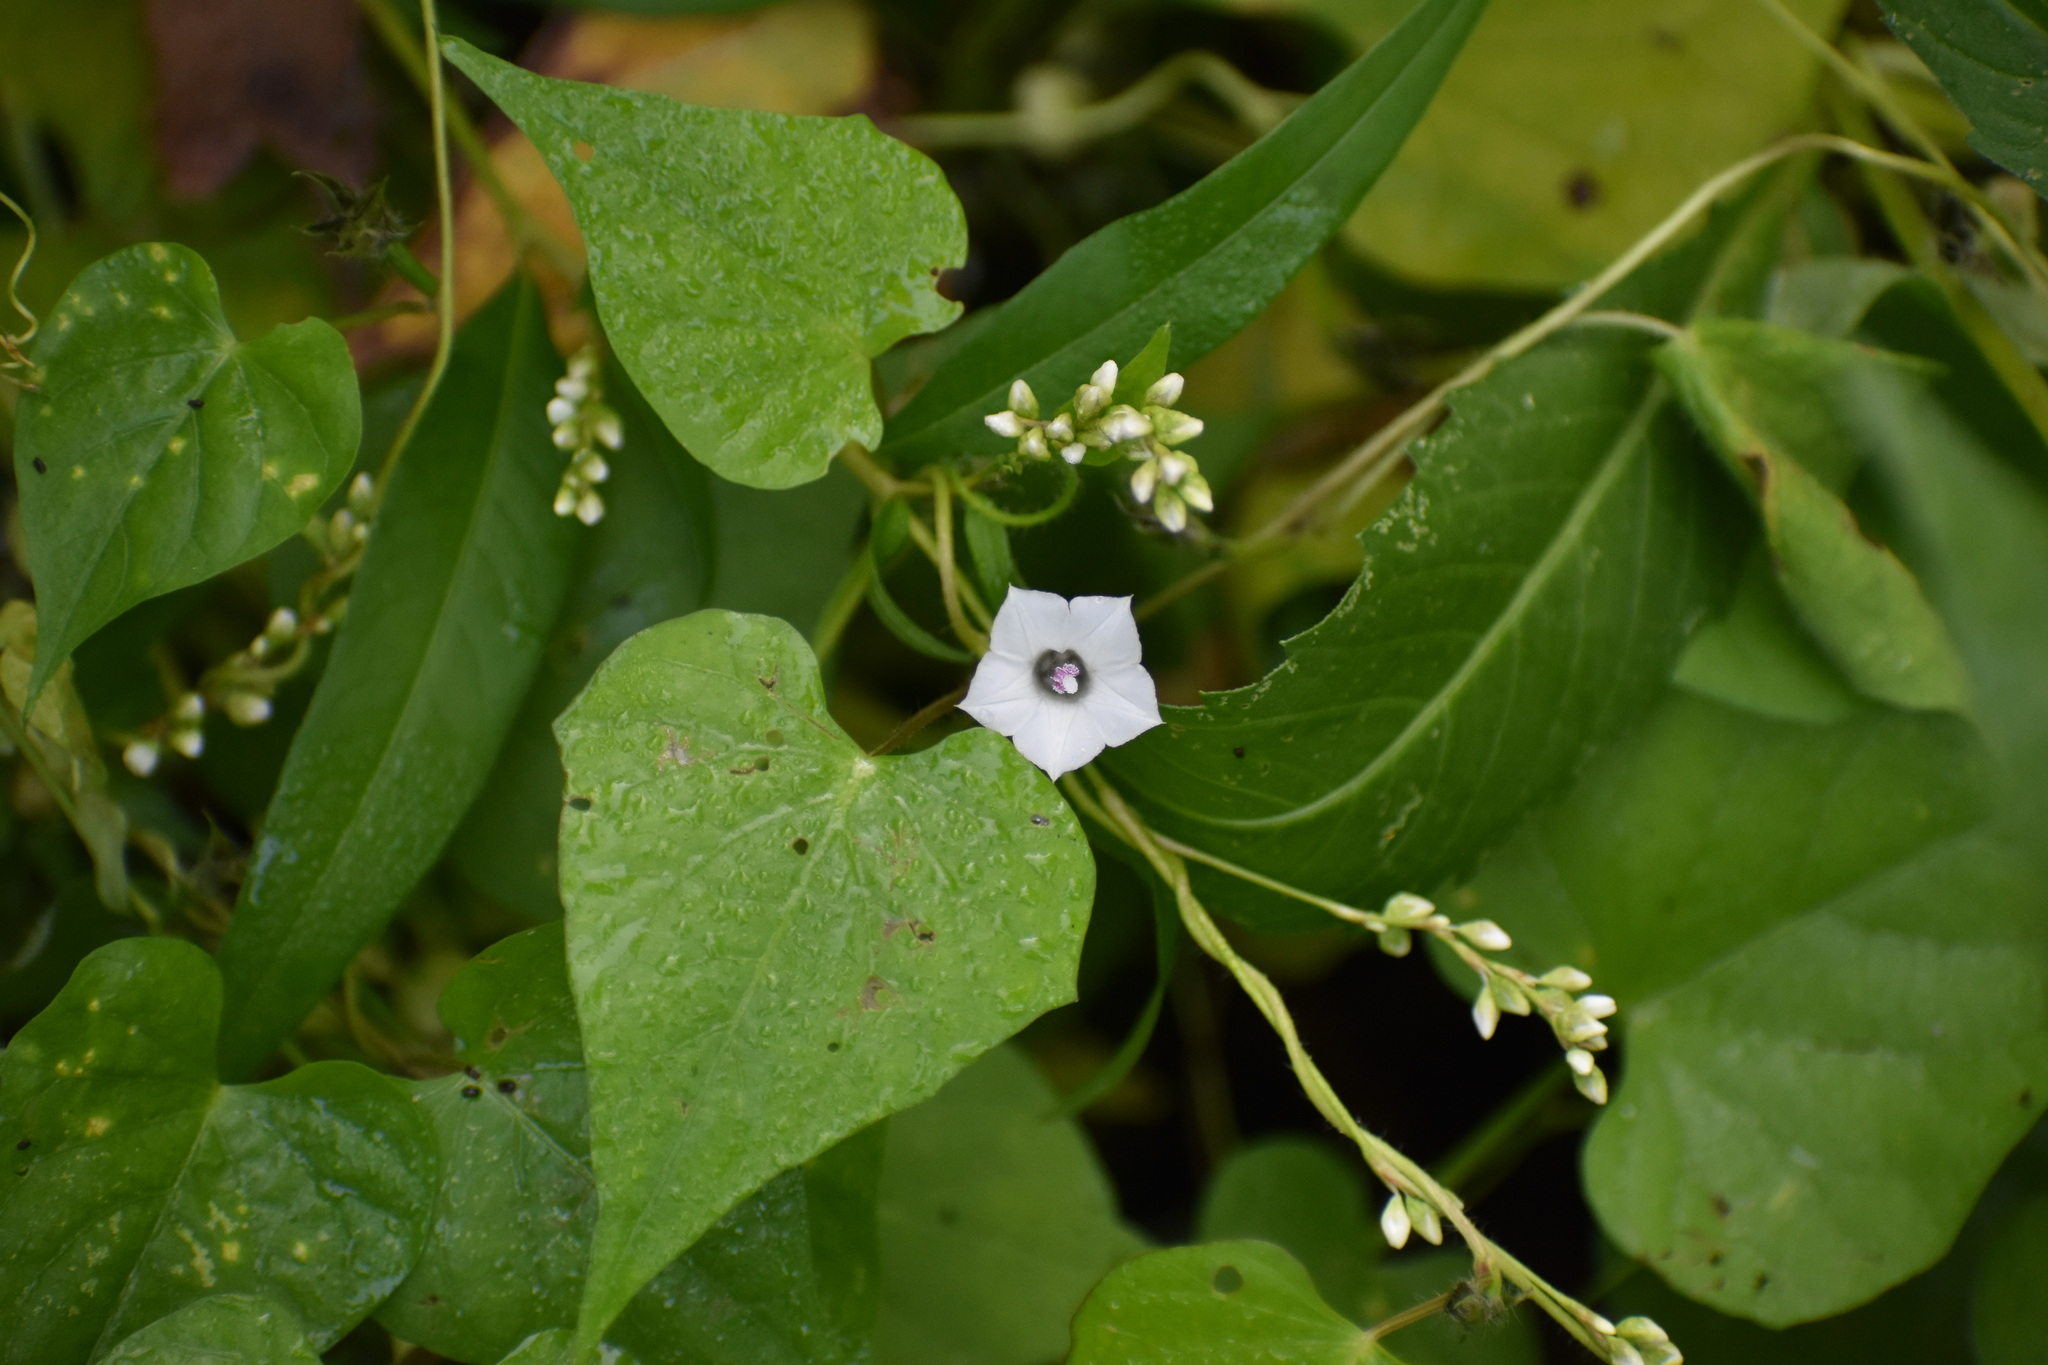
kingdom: Plantae
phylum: Tracheophyta
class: Magnoliopsida
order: Solanales
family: Convolvulaceae
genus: Ipomoea
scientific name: Ipomoea lacunosa
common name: White morning-glory
